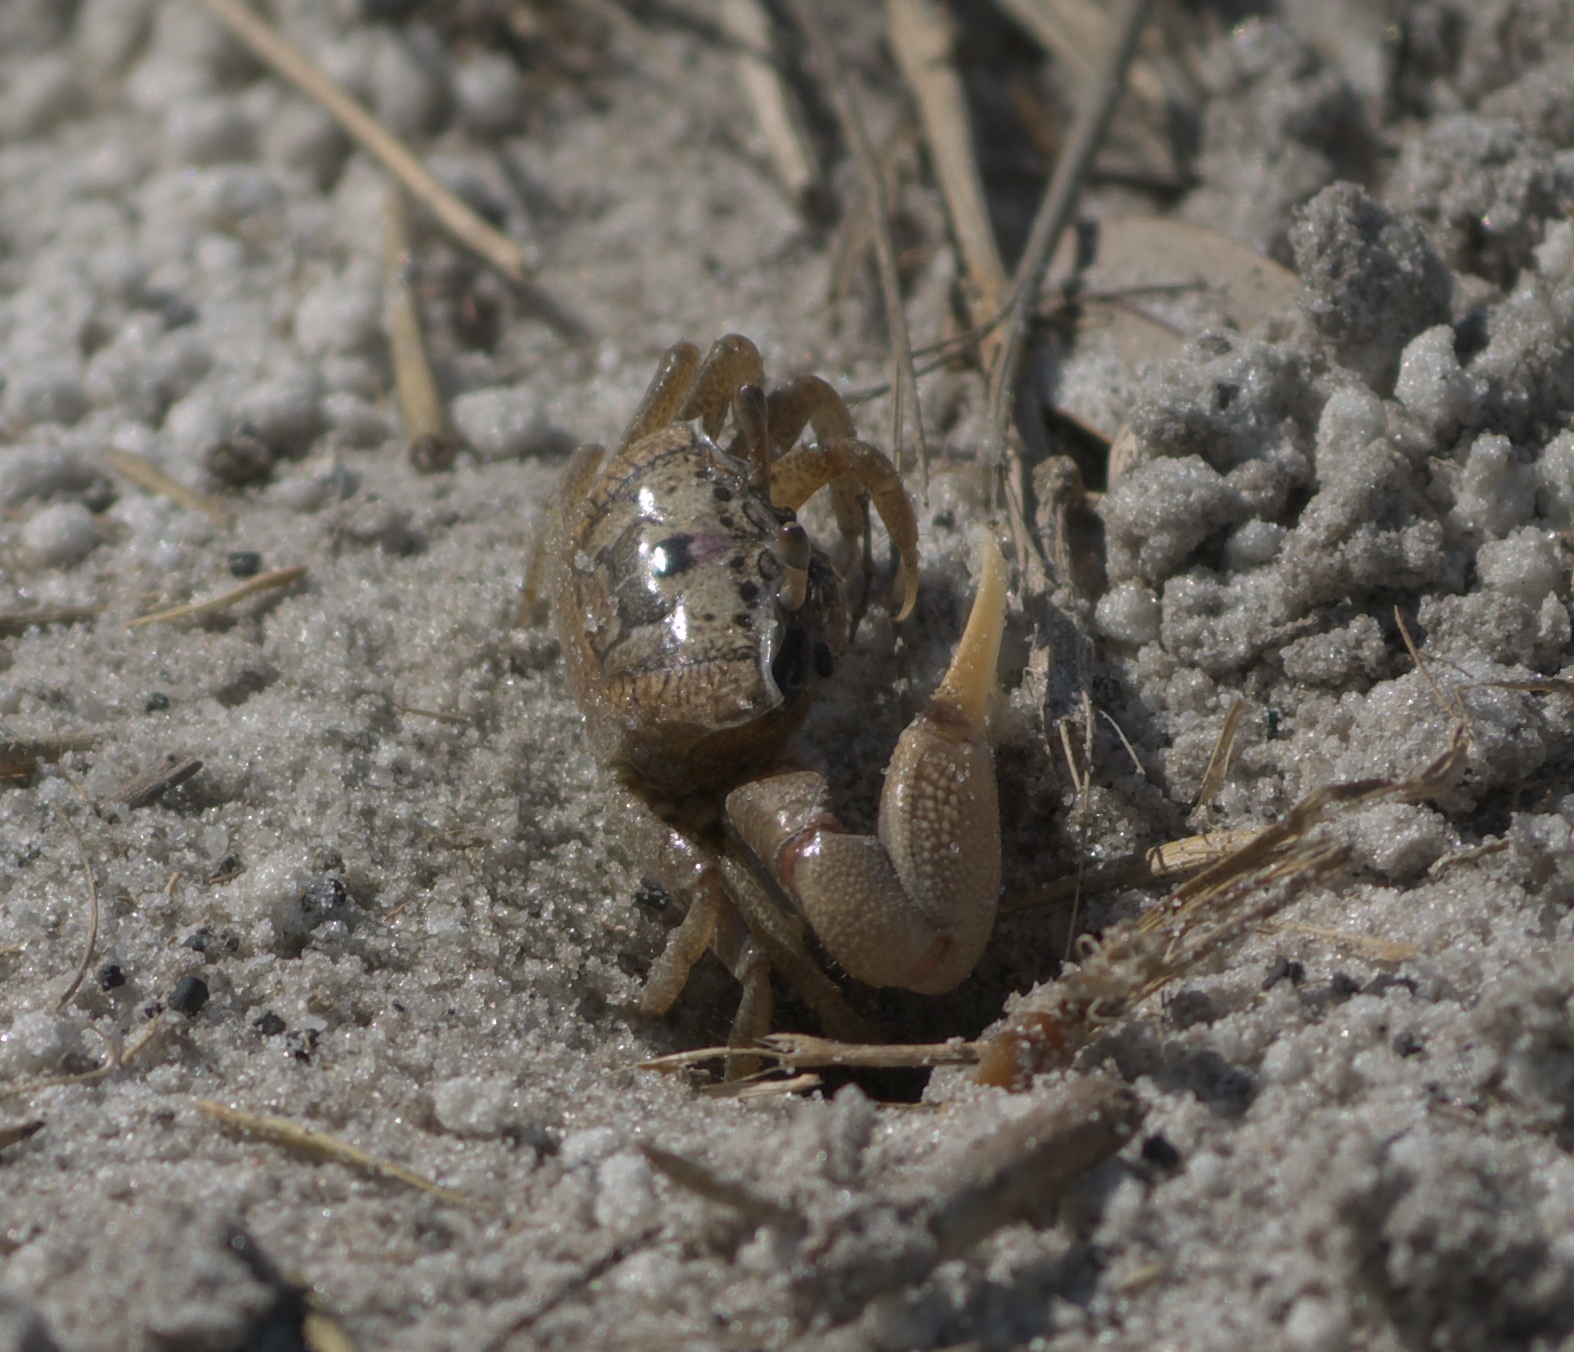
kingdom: Animalia
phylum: Arthropoda
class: Malacostraca
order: Decapoda
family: Ocypodidae
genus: Leptuca
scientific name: Leptuca pugilator
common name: Atlantic sand fiddler crab
